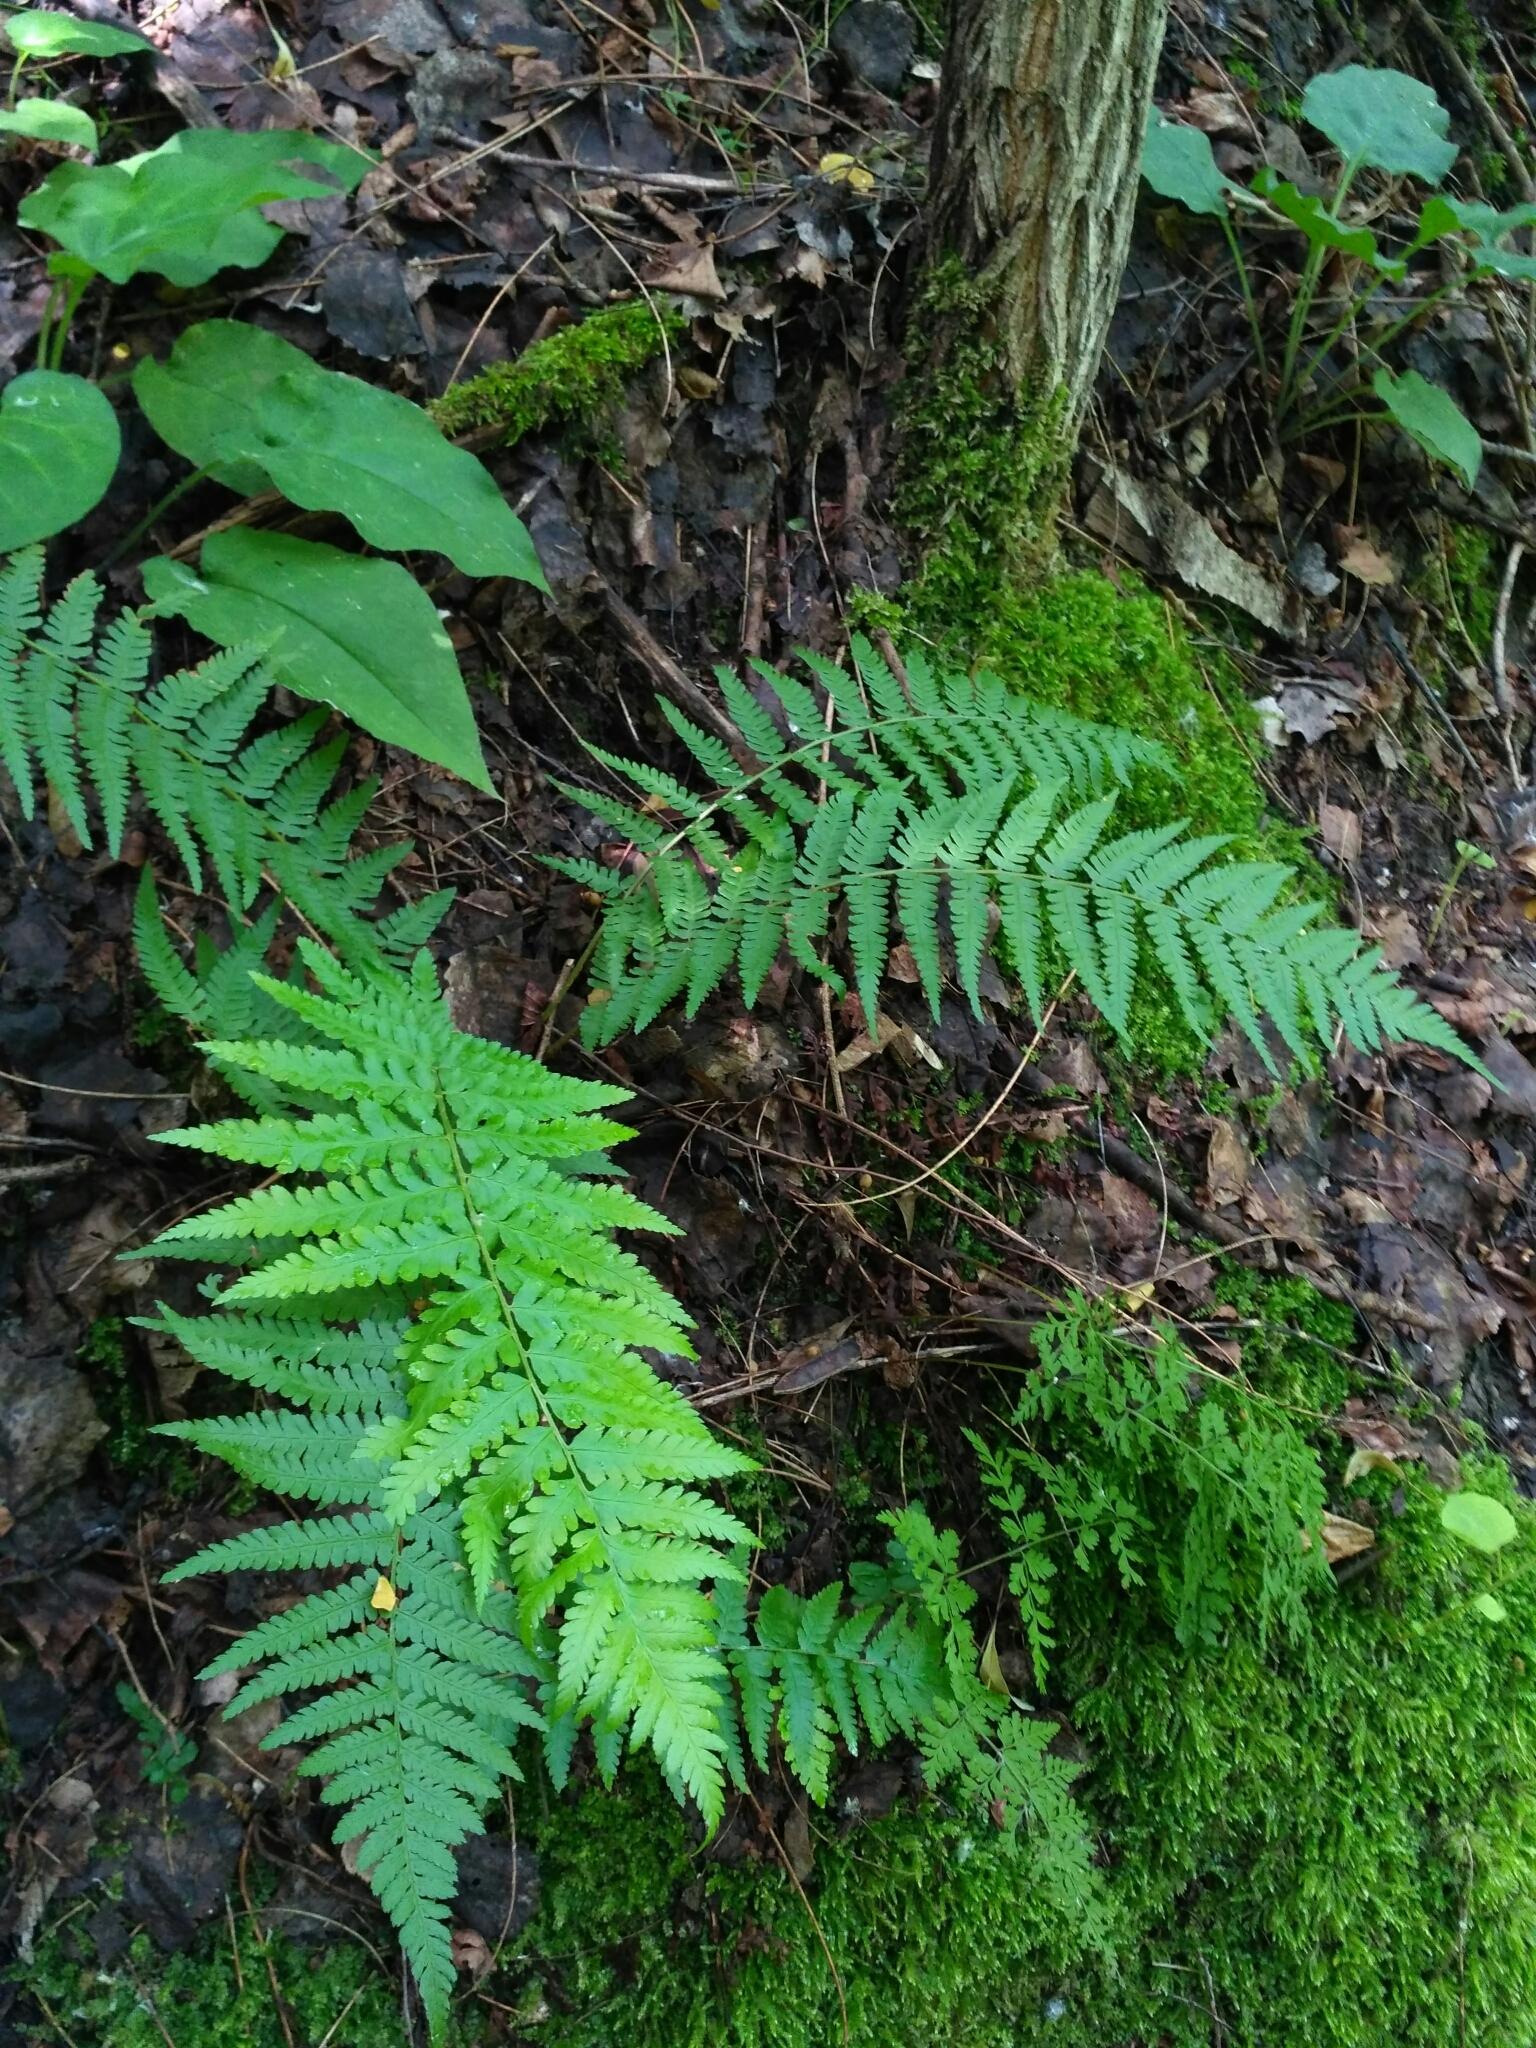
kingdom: Plantae
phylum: Tracheophyta
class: Polypodiopsida
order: Polypodiales
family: Dryopteridaceae
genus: Dryopteris
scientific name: Dryopteris filix-mas
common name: Male fern
